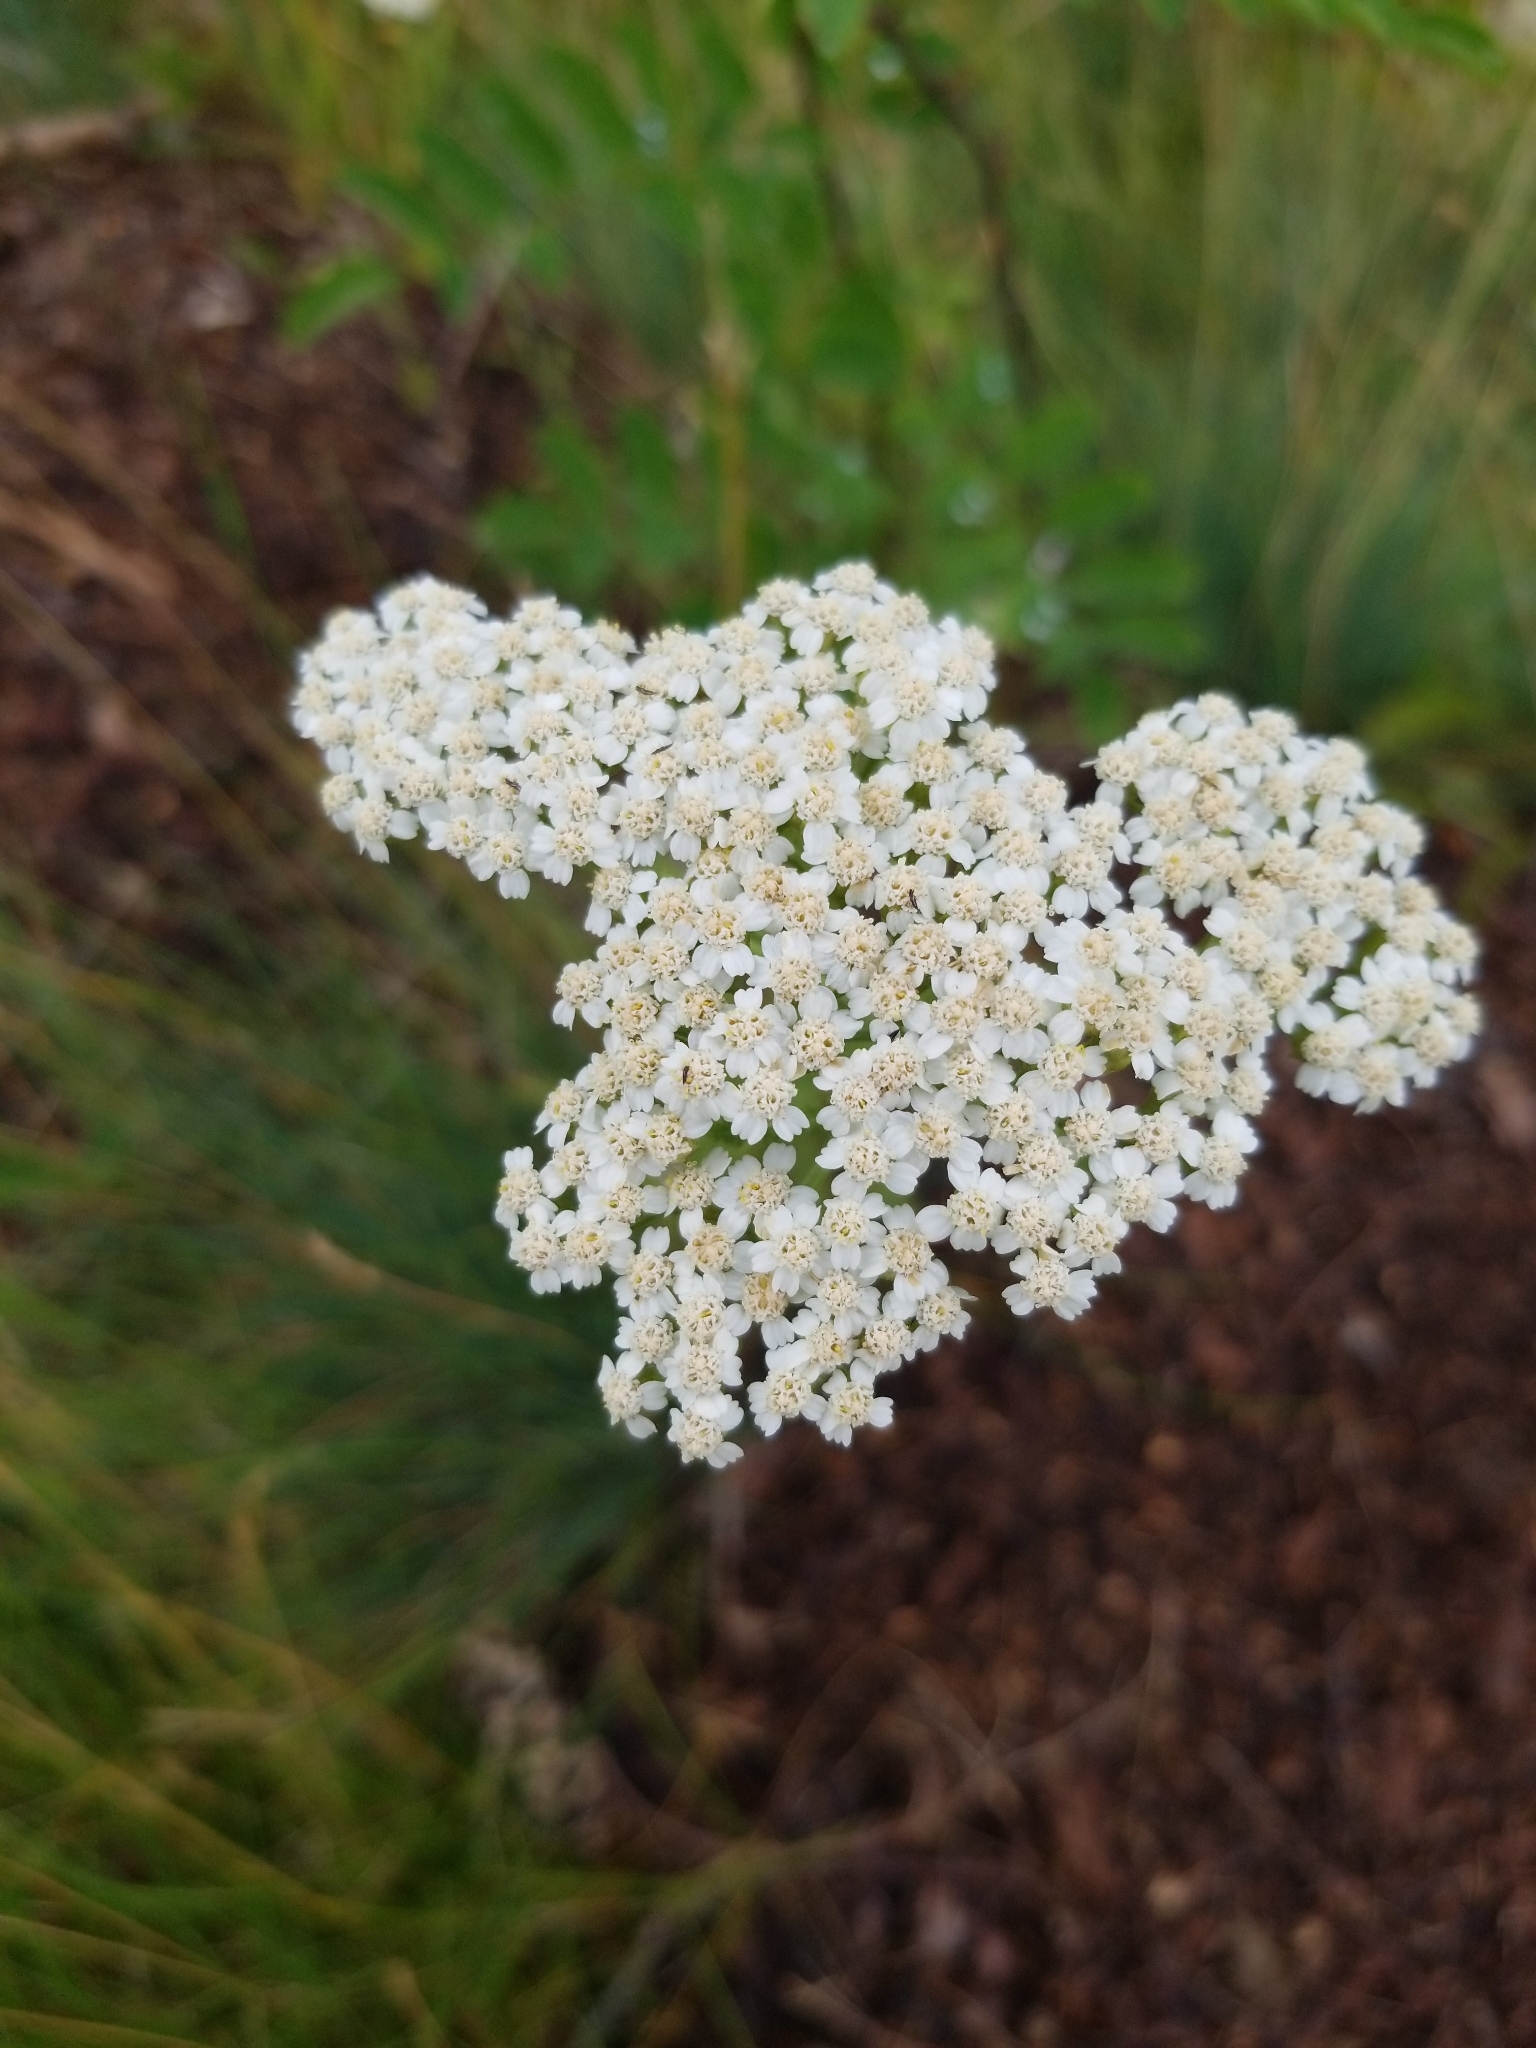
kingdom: Plantae
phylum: Tracheophyta
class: Magnoliopsida
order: Asterales
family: Asteraceae
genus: Achillea
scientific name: Achillea millefolium
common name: Yarrow
